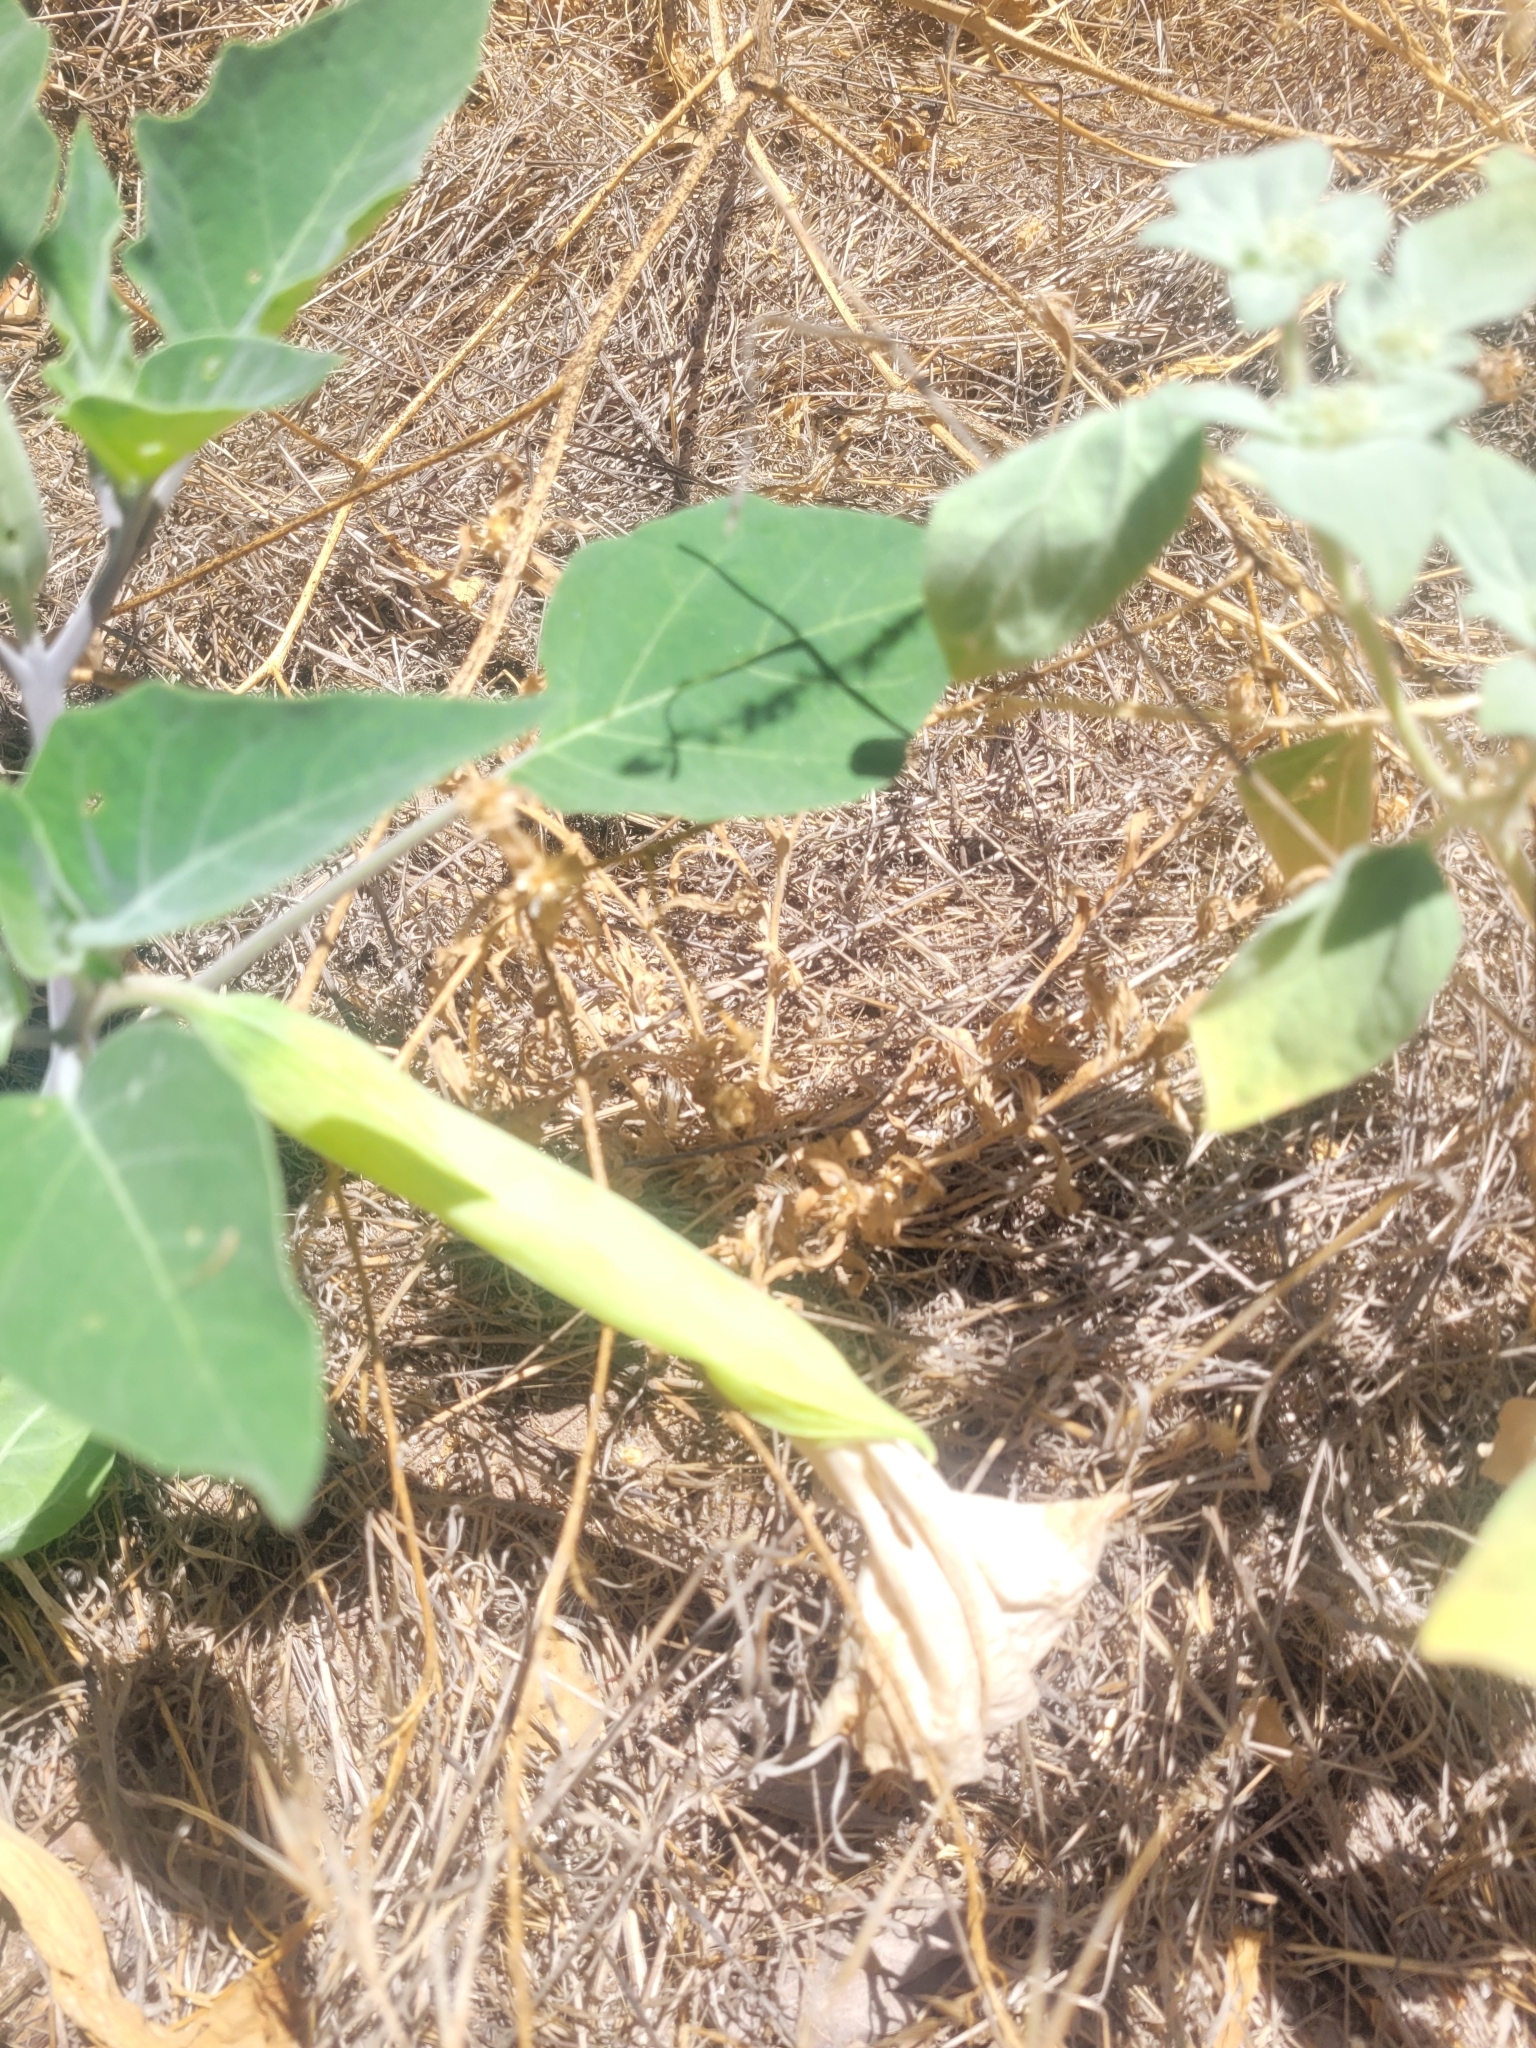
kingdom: Plantae
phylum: Tracheophyta
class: Magnoliopsida
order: Solanales
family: Solanaceae
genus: Datura
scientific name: Datura wrightii
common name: Sacred thorn-apple
